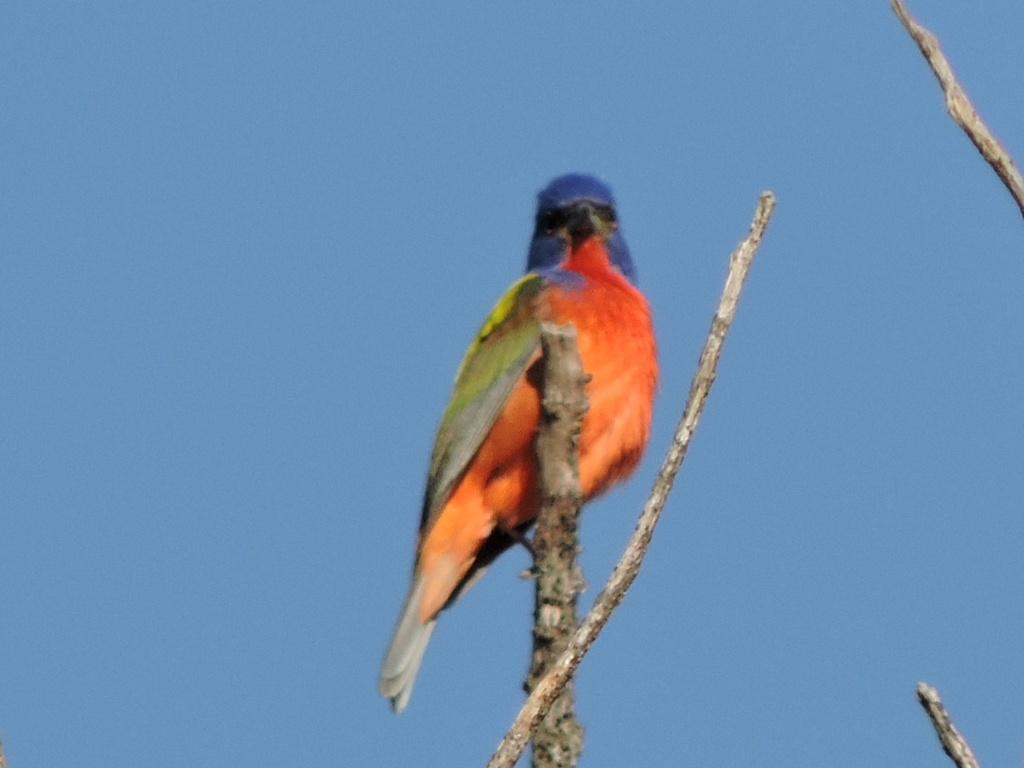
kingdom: Animalia
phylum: Chordata
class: Aves
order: Passeriformes
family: Cardinalidae
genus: Passerina
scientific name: Passerina ciris
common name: Painted bunting
